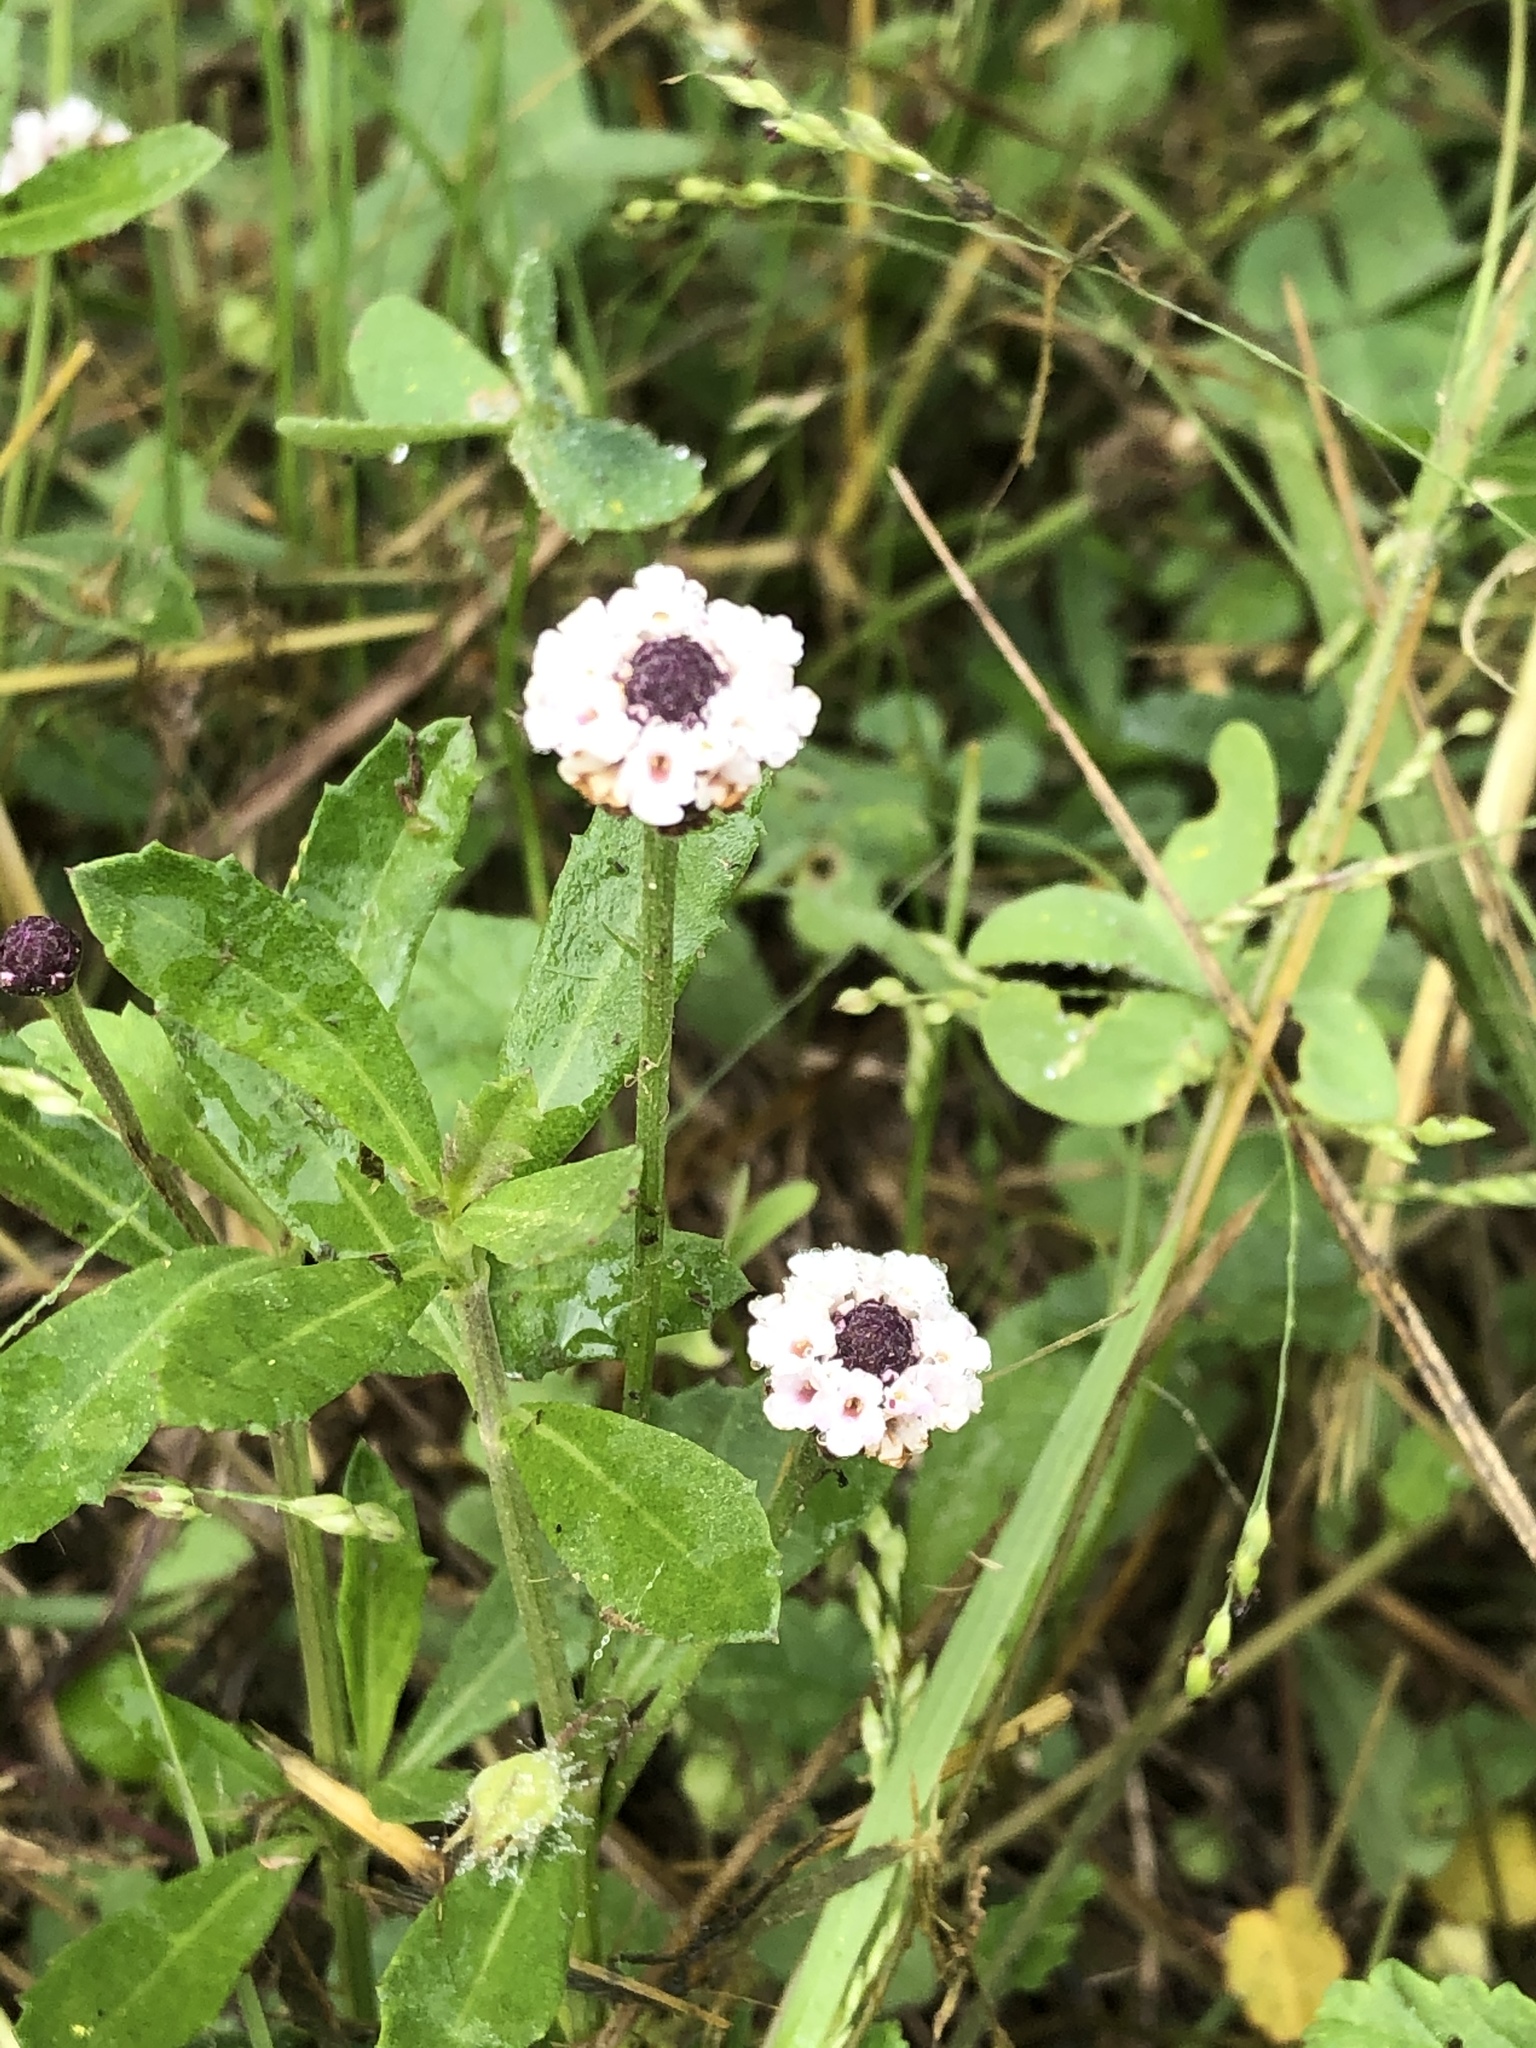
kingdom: Plantae
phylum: Tracheophyta
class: Magnoliopsida
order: Lamiales
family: Verbenaceae
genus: Phyla
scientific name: Phyla nodiflora
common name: Frogfruit
